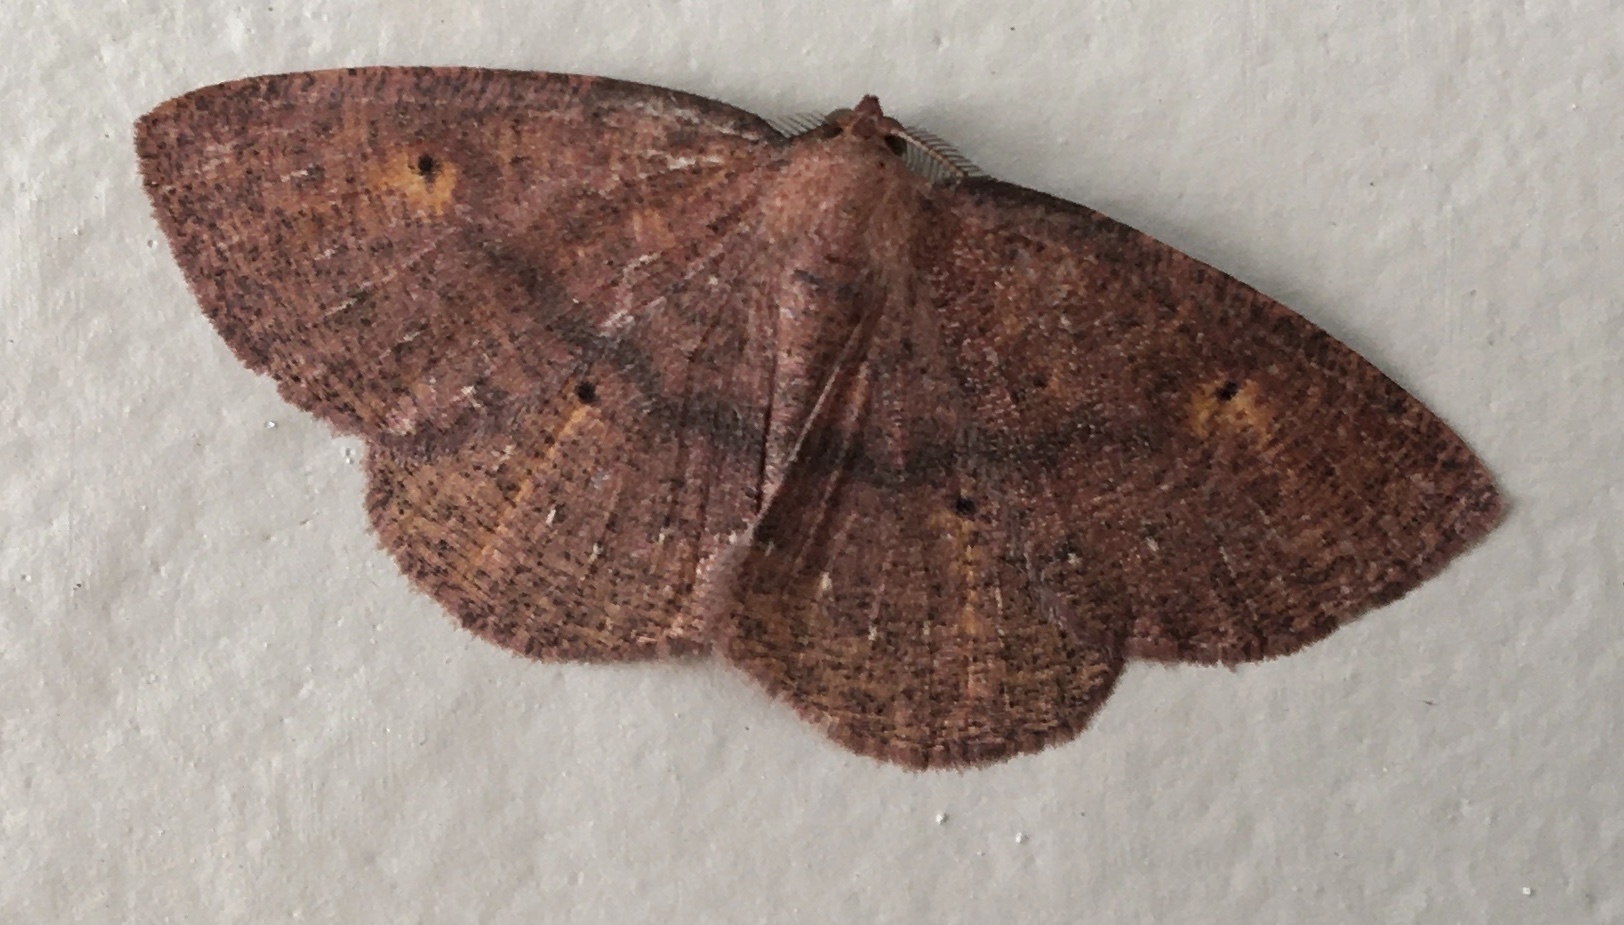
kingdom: Animalia
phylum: Arthropoda
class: Insecta
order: Lepidoptera
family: Geometridae
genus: Ilexia
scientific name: Ilexia intractata
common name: Black-dotted ruddy moth
